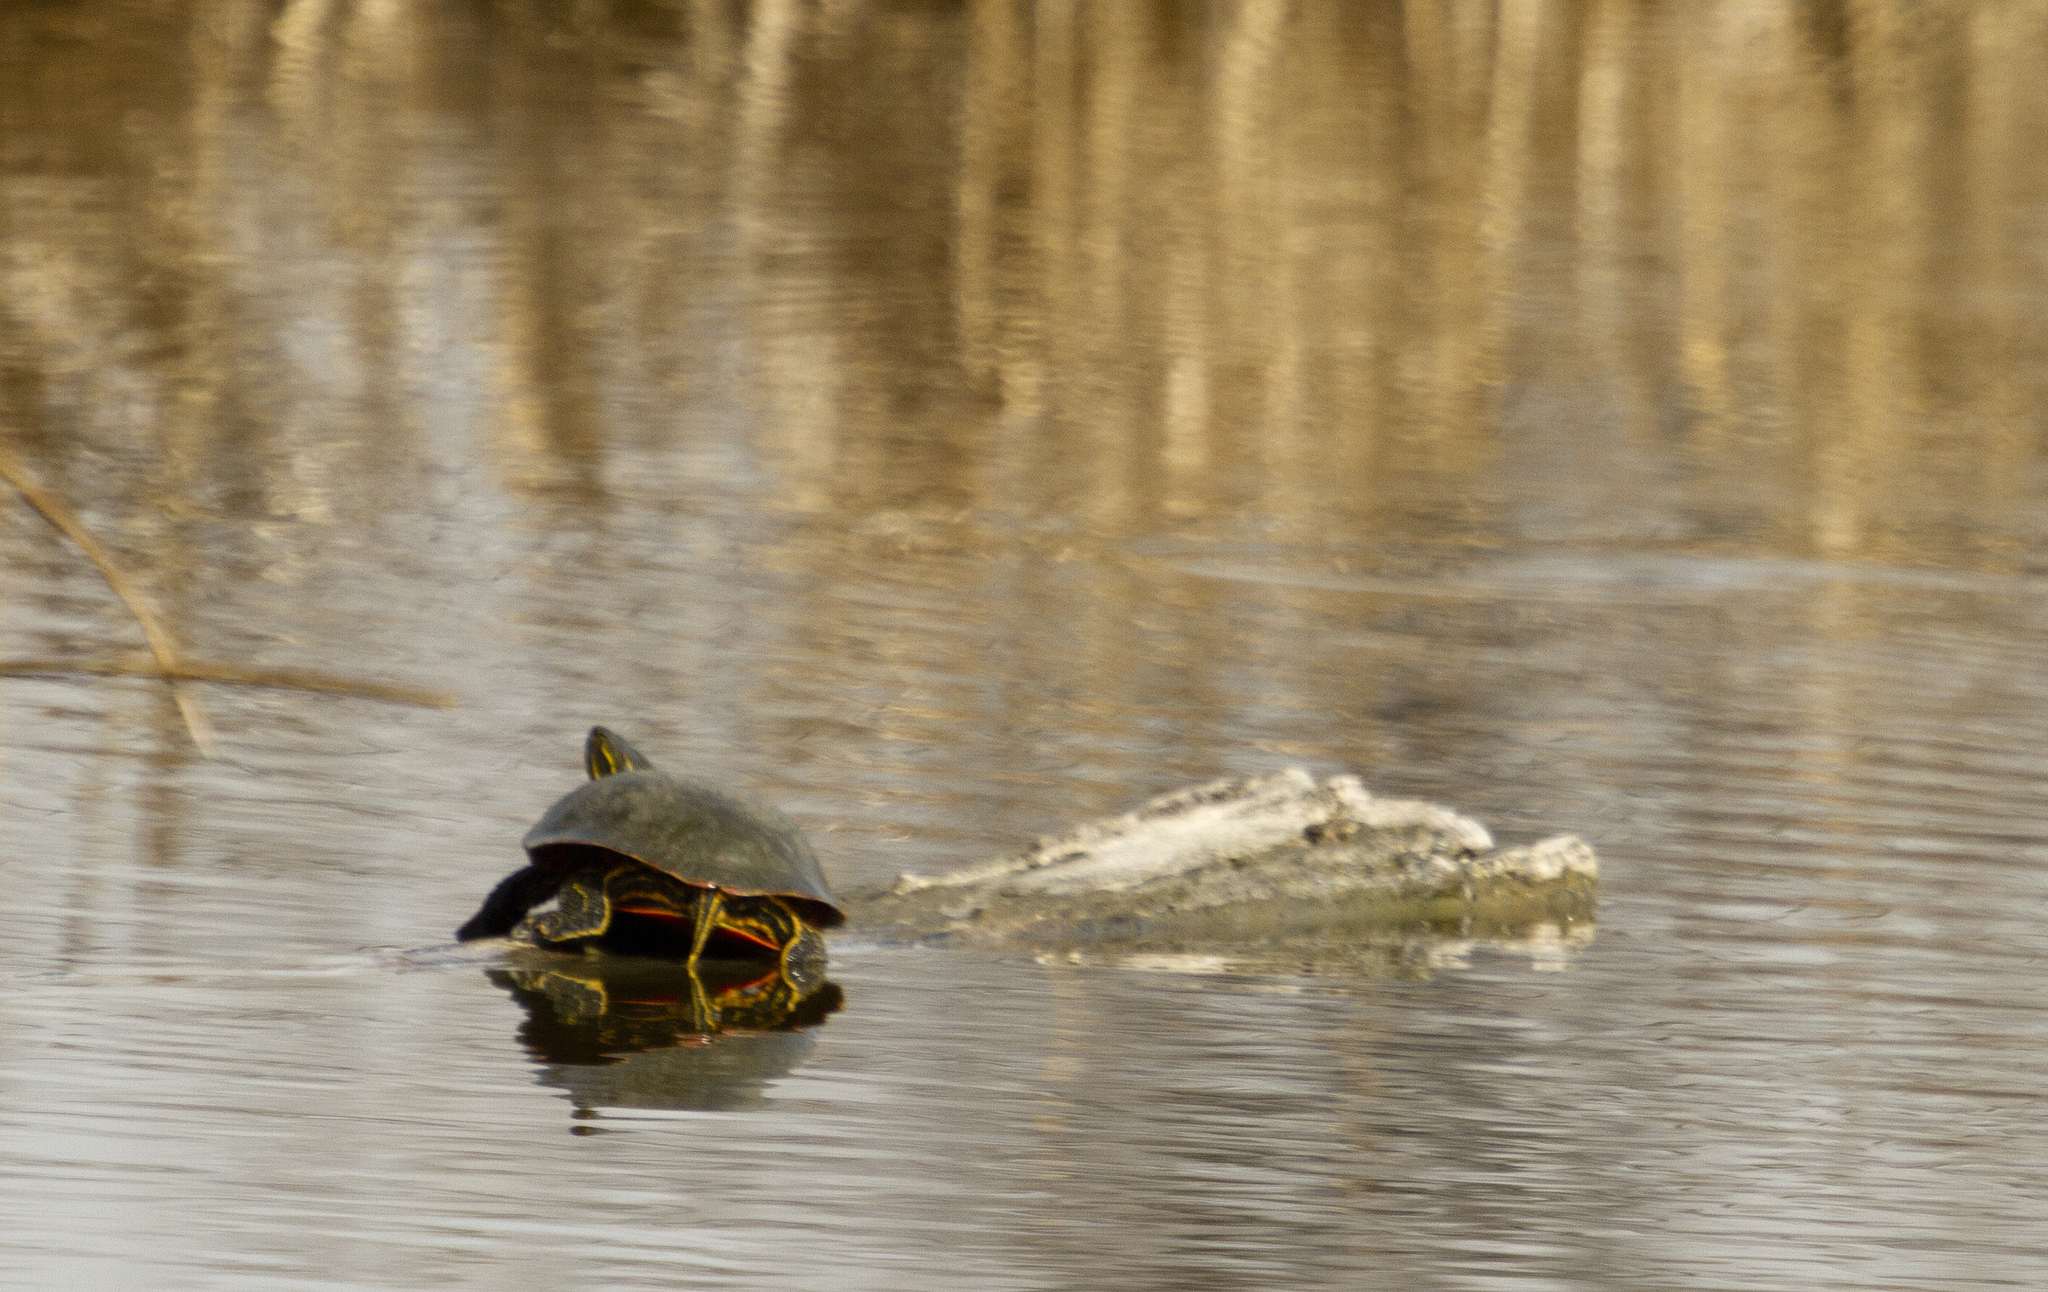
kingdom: Animalia
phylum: Chordata
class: Testudines
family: Emydidae
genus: Chrysemys
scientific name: Chrysemys picta
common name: Painted turtle
